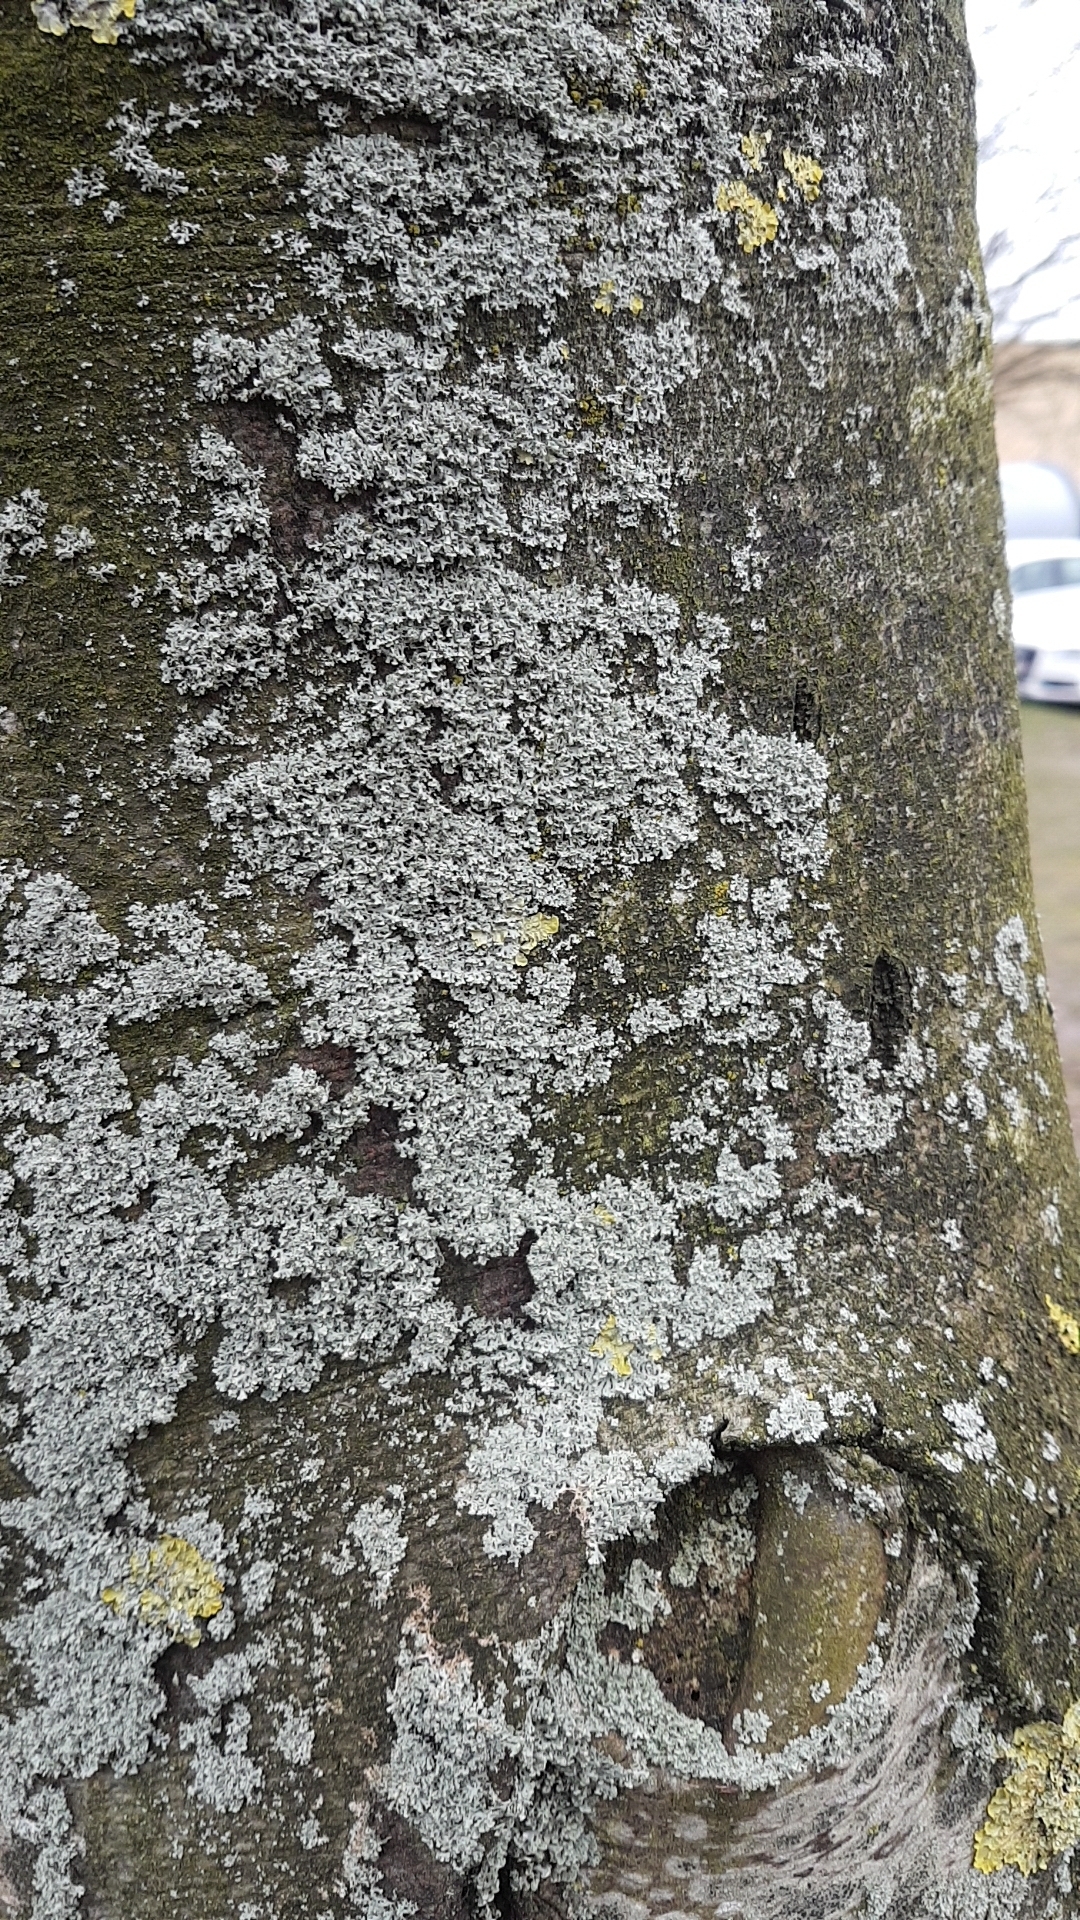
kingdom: Fungi
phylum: Ascomycota
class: Lecanoromycetes
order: Caliciales
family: Physciaceae
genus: Physcia
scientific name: Physcia tenella
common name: Fringed rosette lichen
